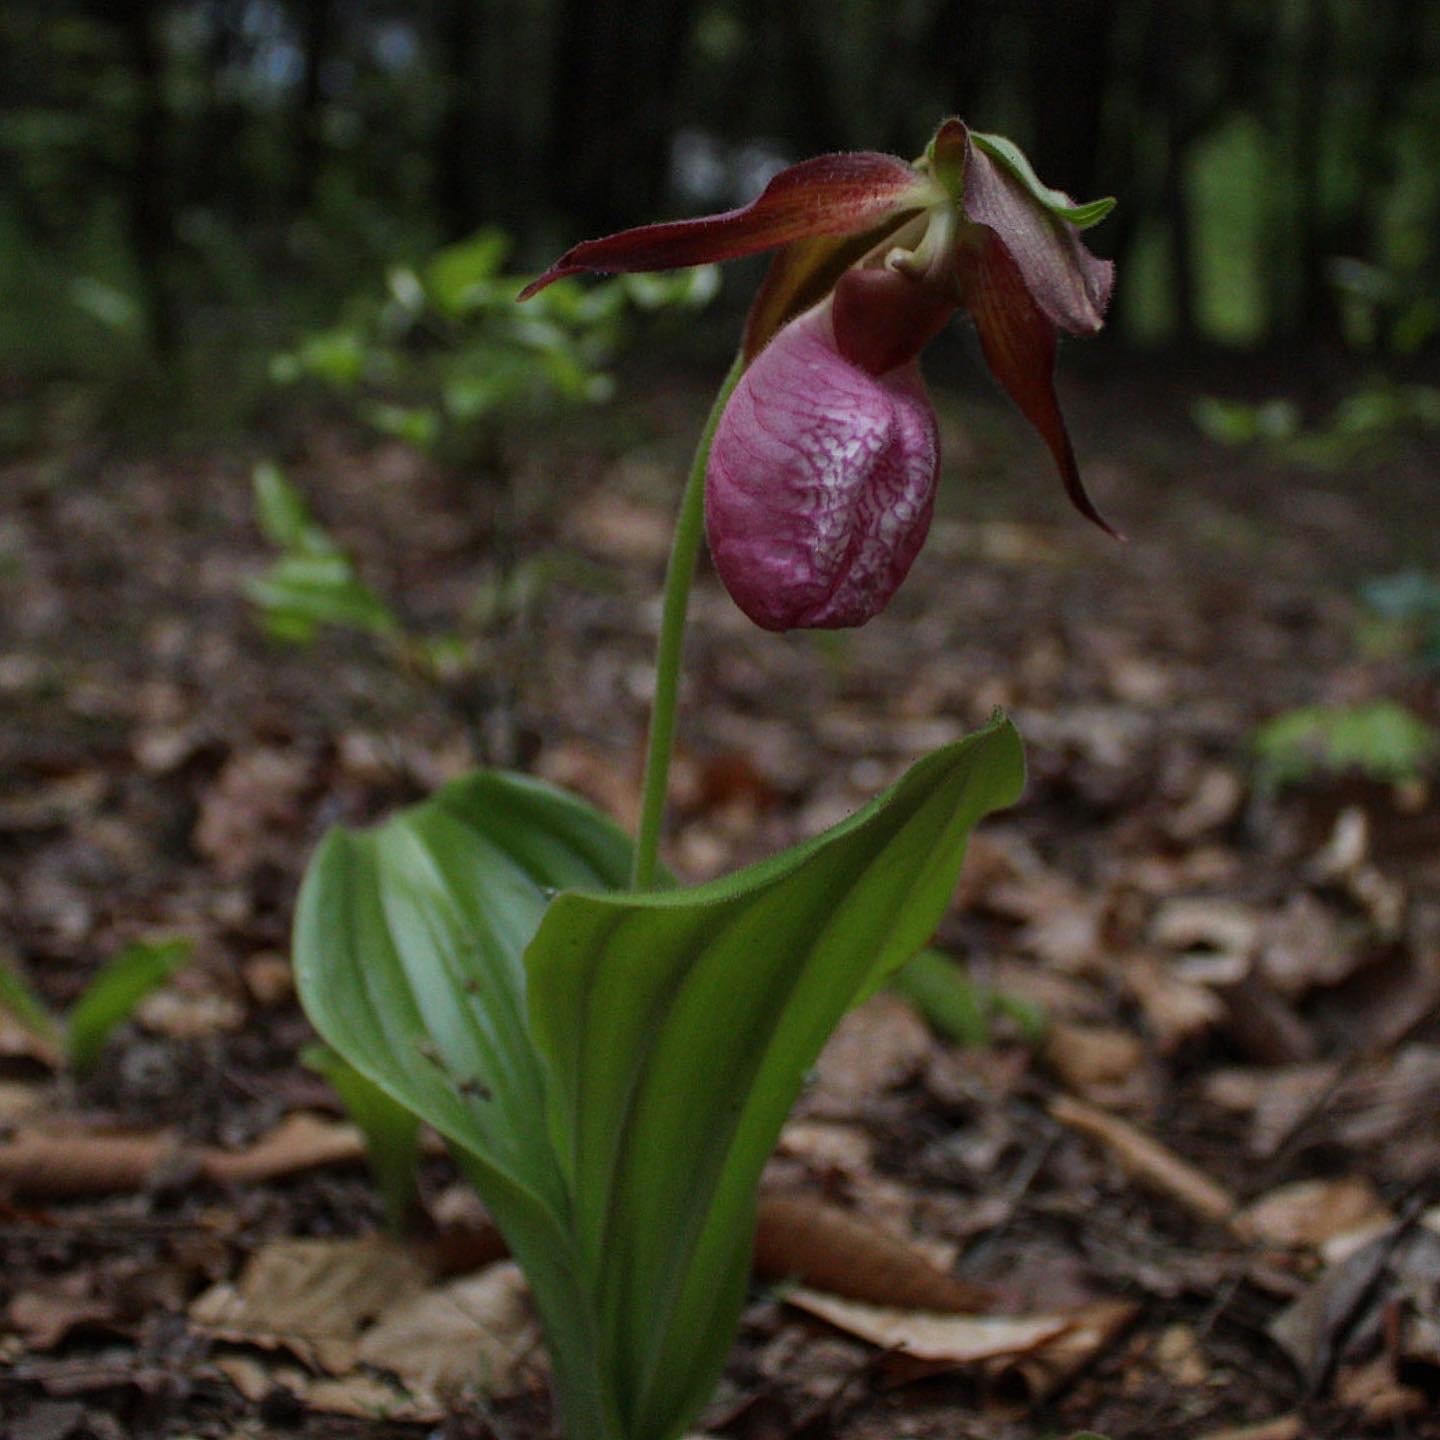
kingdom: Plantae
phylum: Tracheophyta
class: Liliopsida
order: Asparagales
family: Orchidaceae
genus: Cypripedium
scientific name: Cypripedium acaule
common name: Pink lady's-slipper
